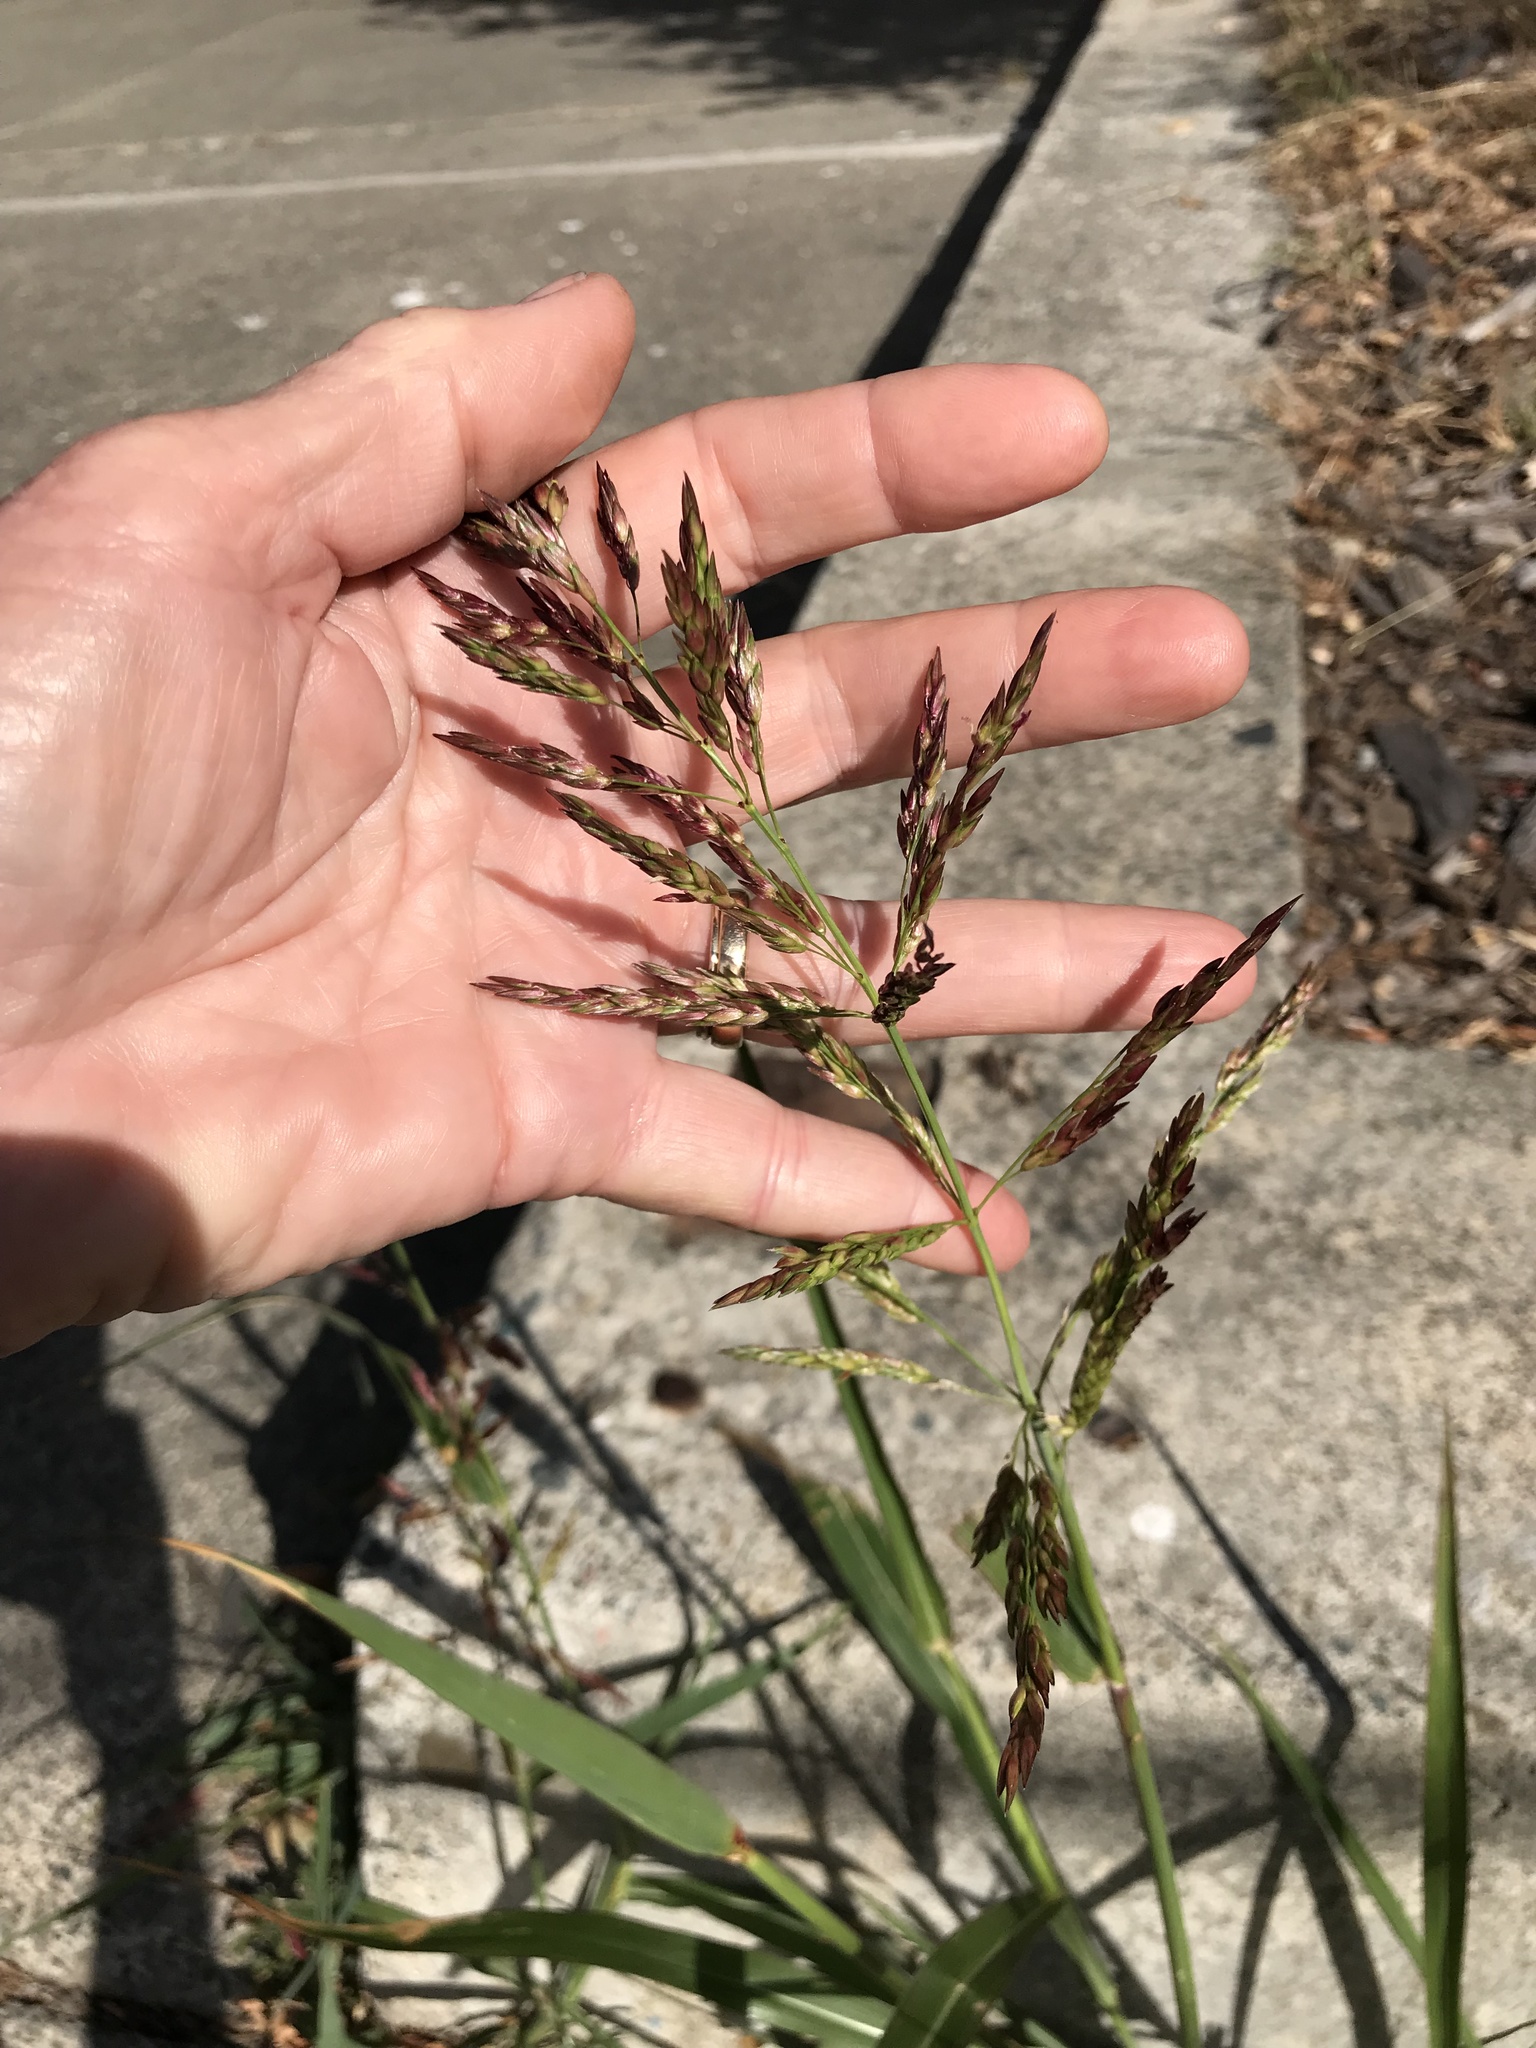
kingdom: Plantae
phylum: Tracheophyta
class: Liliopsida
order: Poales
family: Poaceae
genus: Sorghum
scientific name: Sorghum halepense
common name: Johnson-grass
